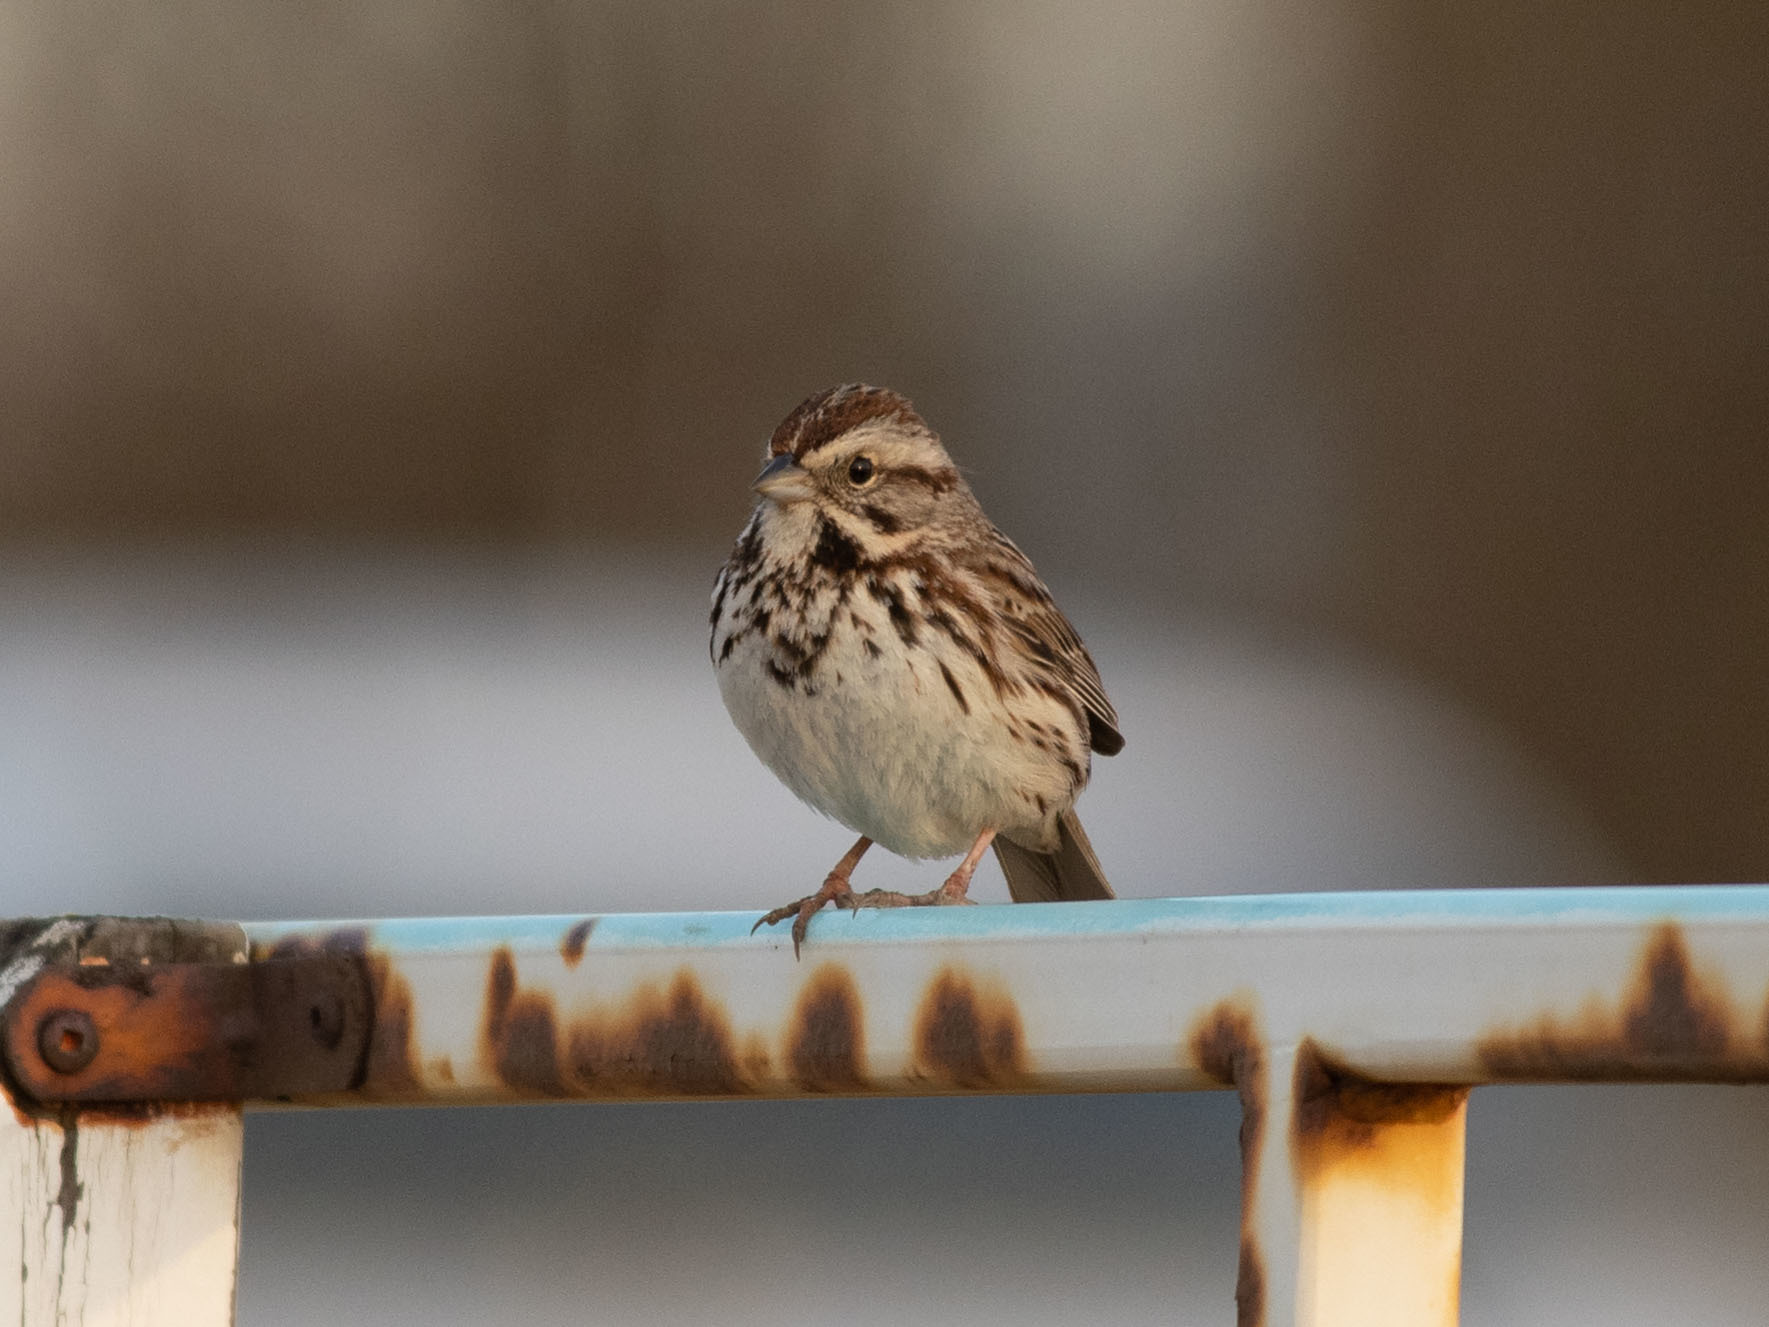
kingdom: Animalia
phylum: Chordata
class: Aves
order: Passeriformes
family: Passerellidae
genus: Melospiza
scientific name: Melospiza melodia
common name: Song sparrow
